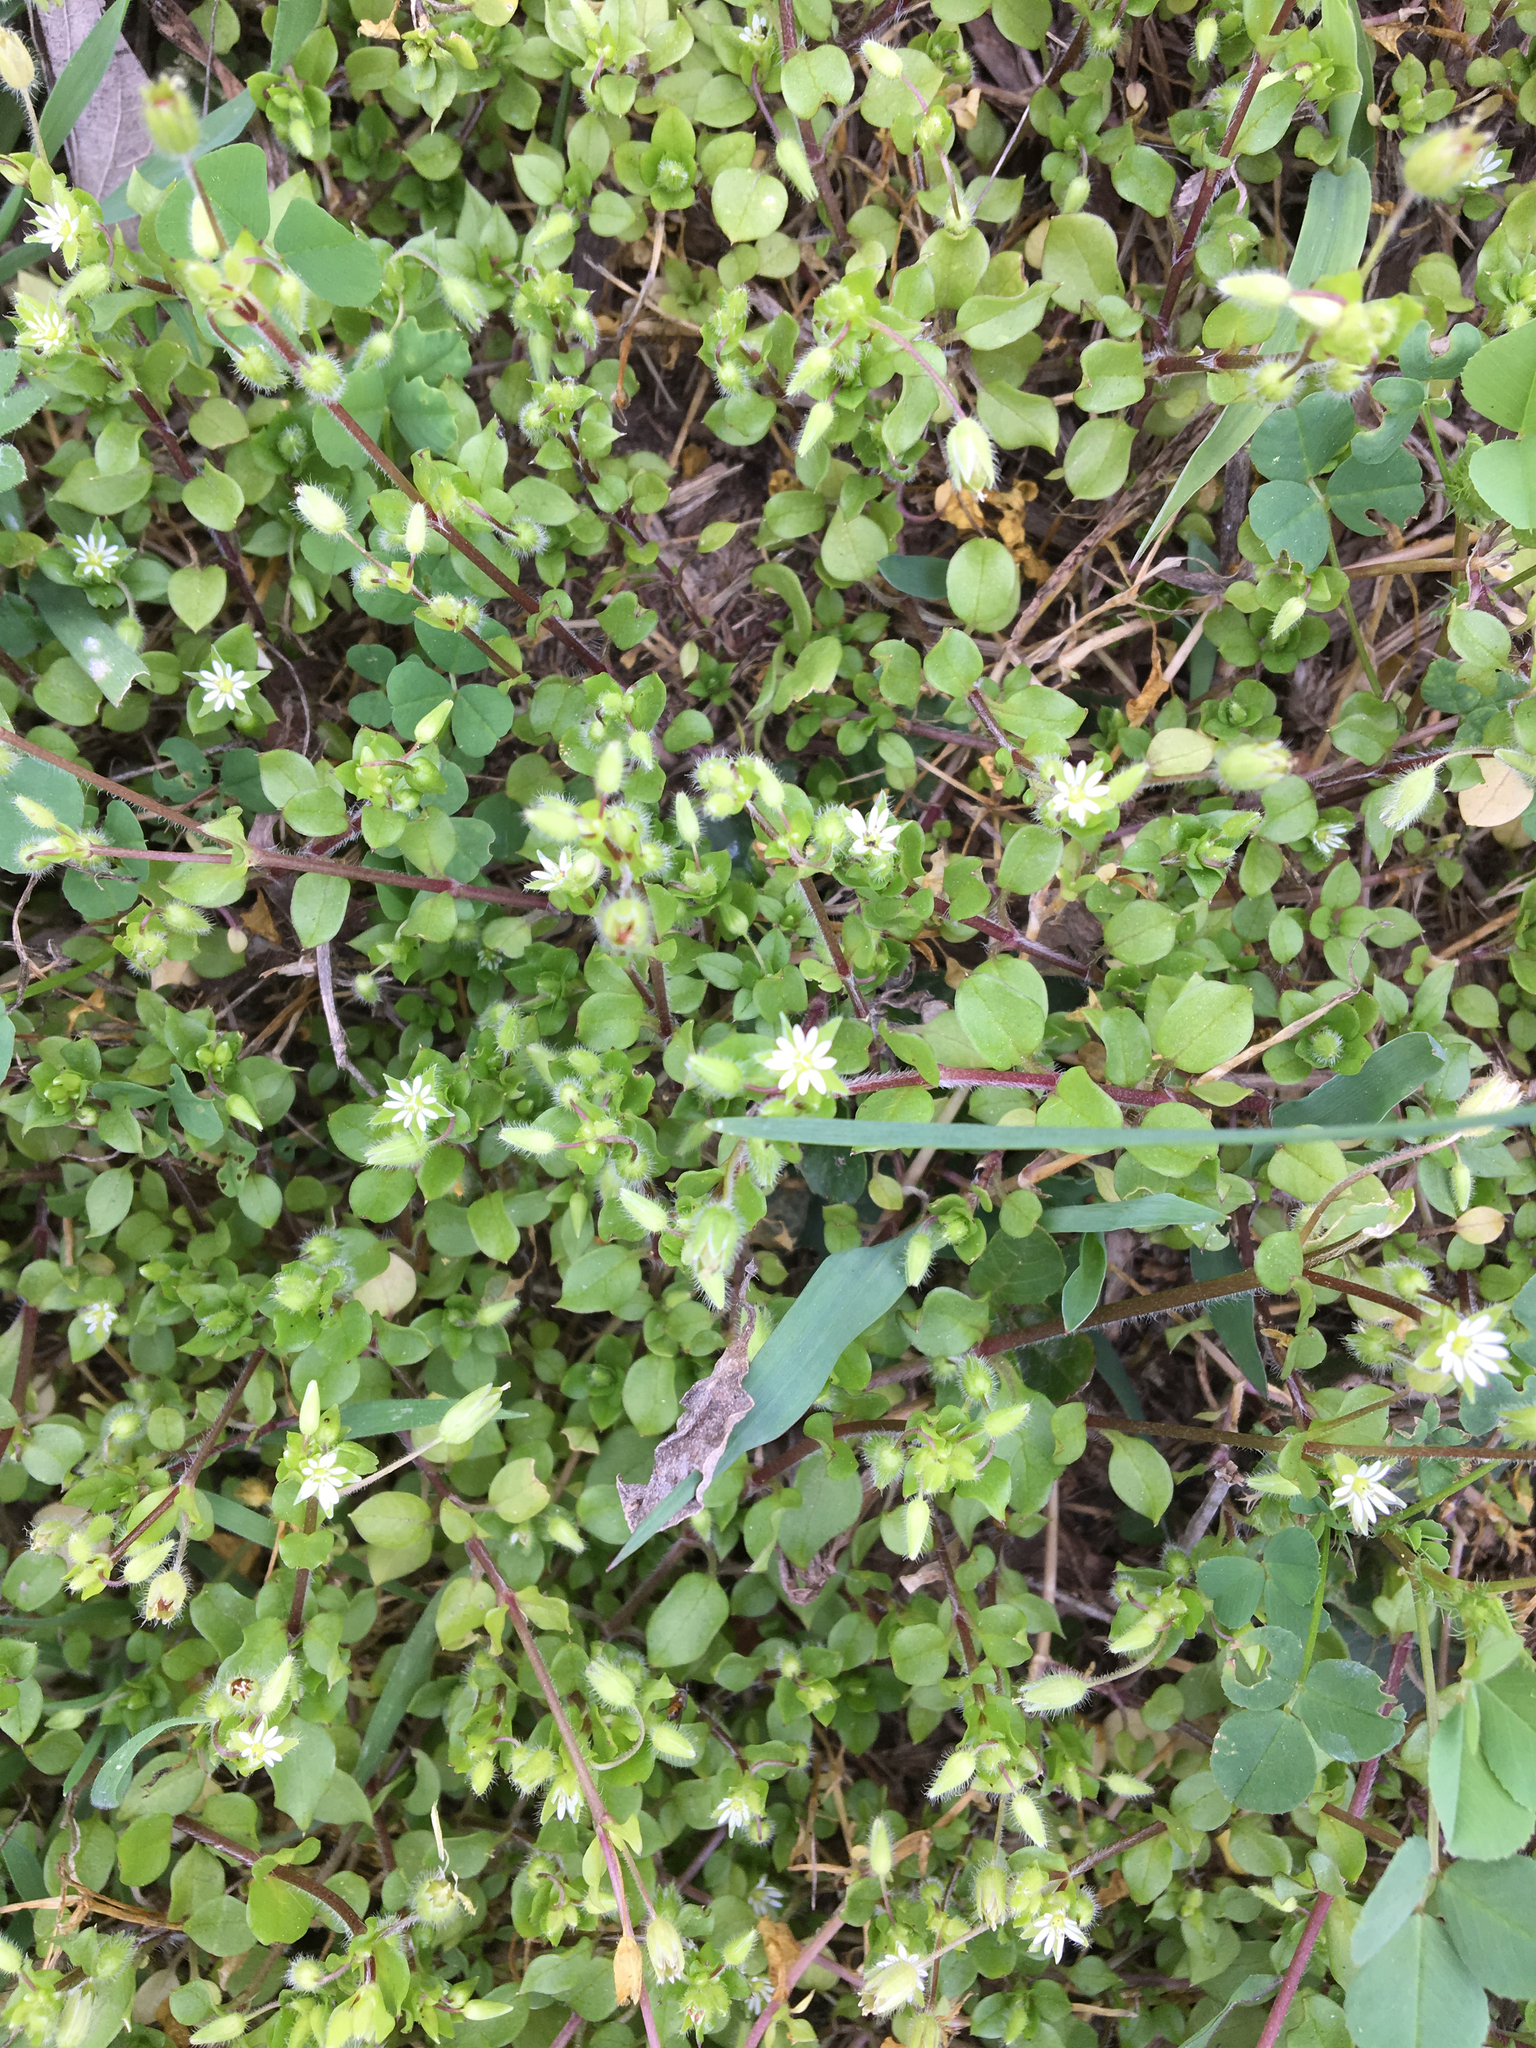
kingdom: Plantae
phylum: Tracheophyta
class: Magnoliopsida
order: Caryophyllales
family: Caryophyllaceae
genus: Stellaria
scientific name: Stellaria media
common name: Common chickweed
